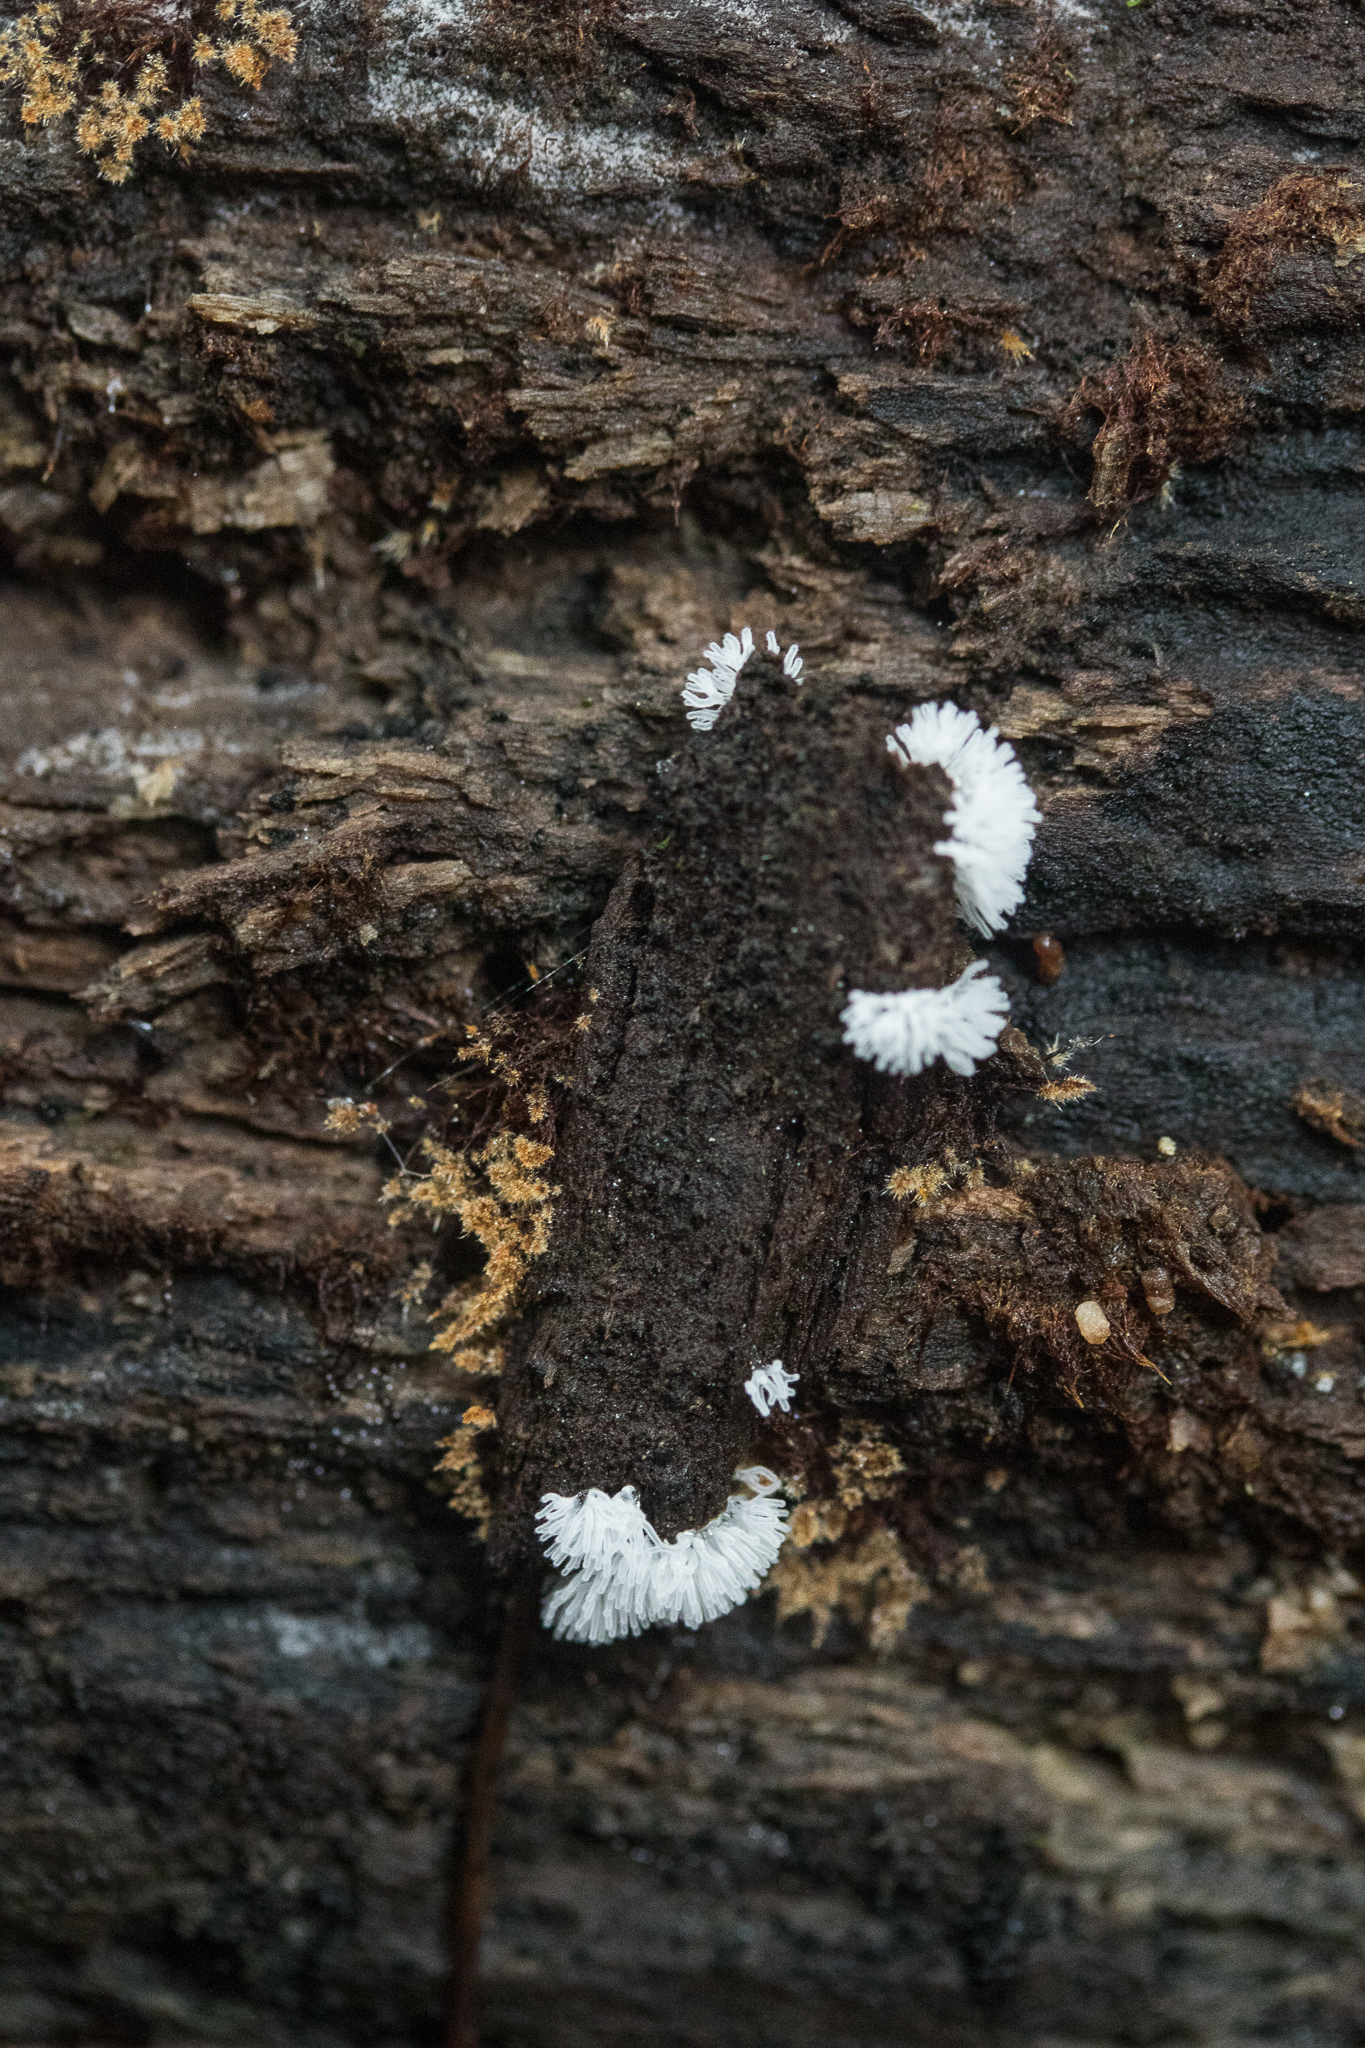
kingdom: Protozoa
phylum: Mycetozoa
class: Protosteliomycetes
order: Ceratiomyxales
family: Ceratiomyxaceae
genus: Ceratiomyxa
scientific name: Ceratiomyxa fruticulosa
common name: Honeycomb coral slime mold
